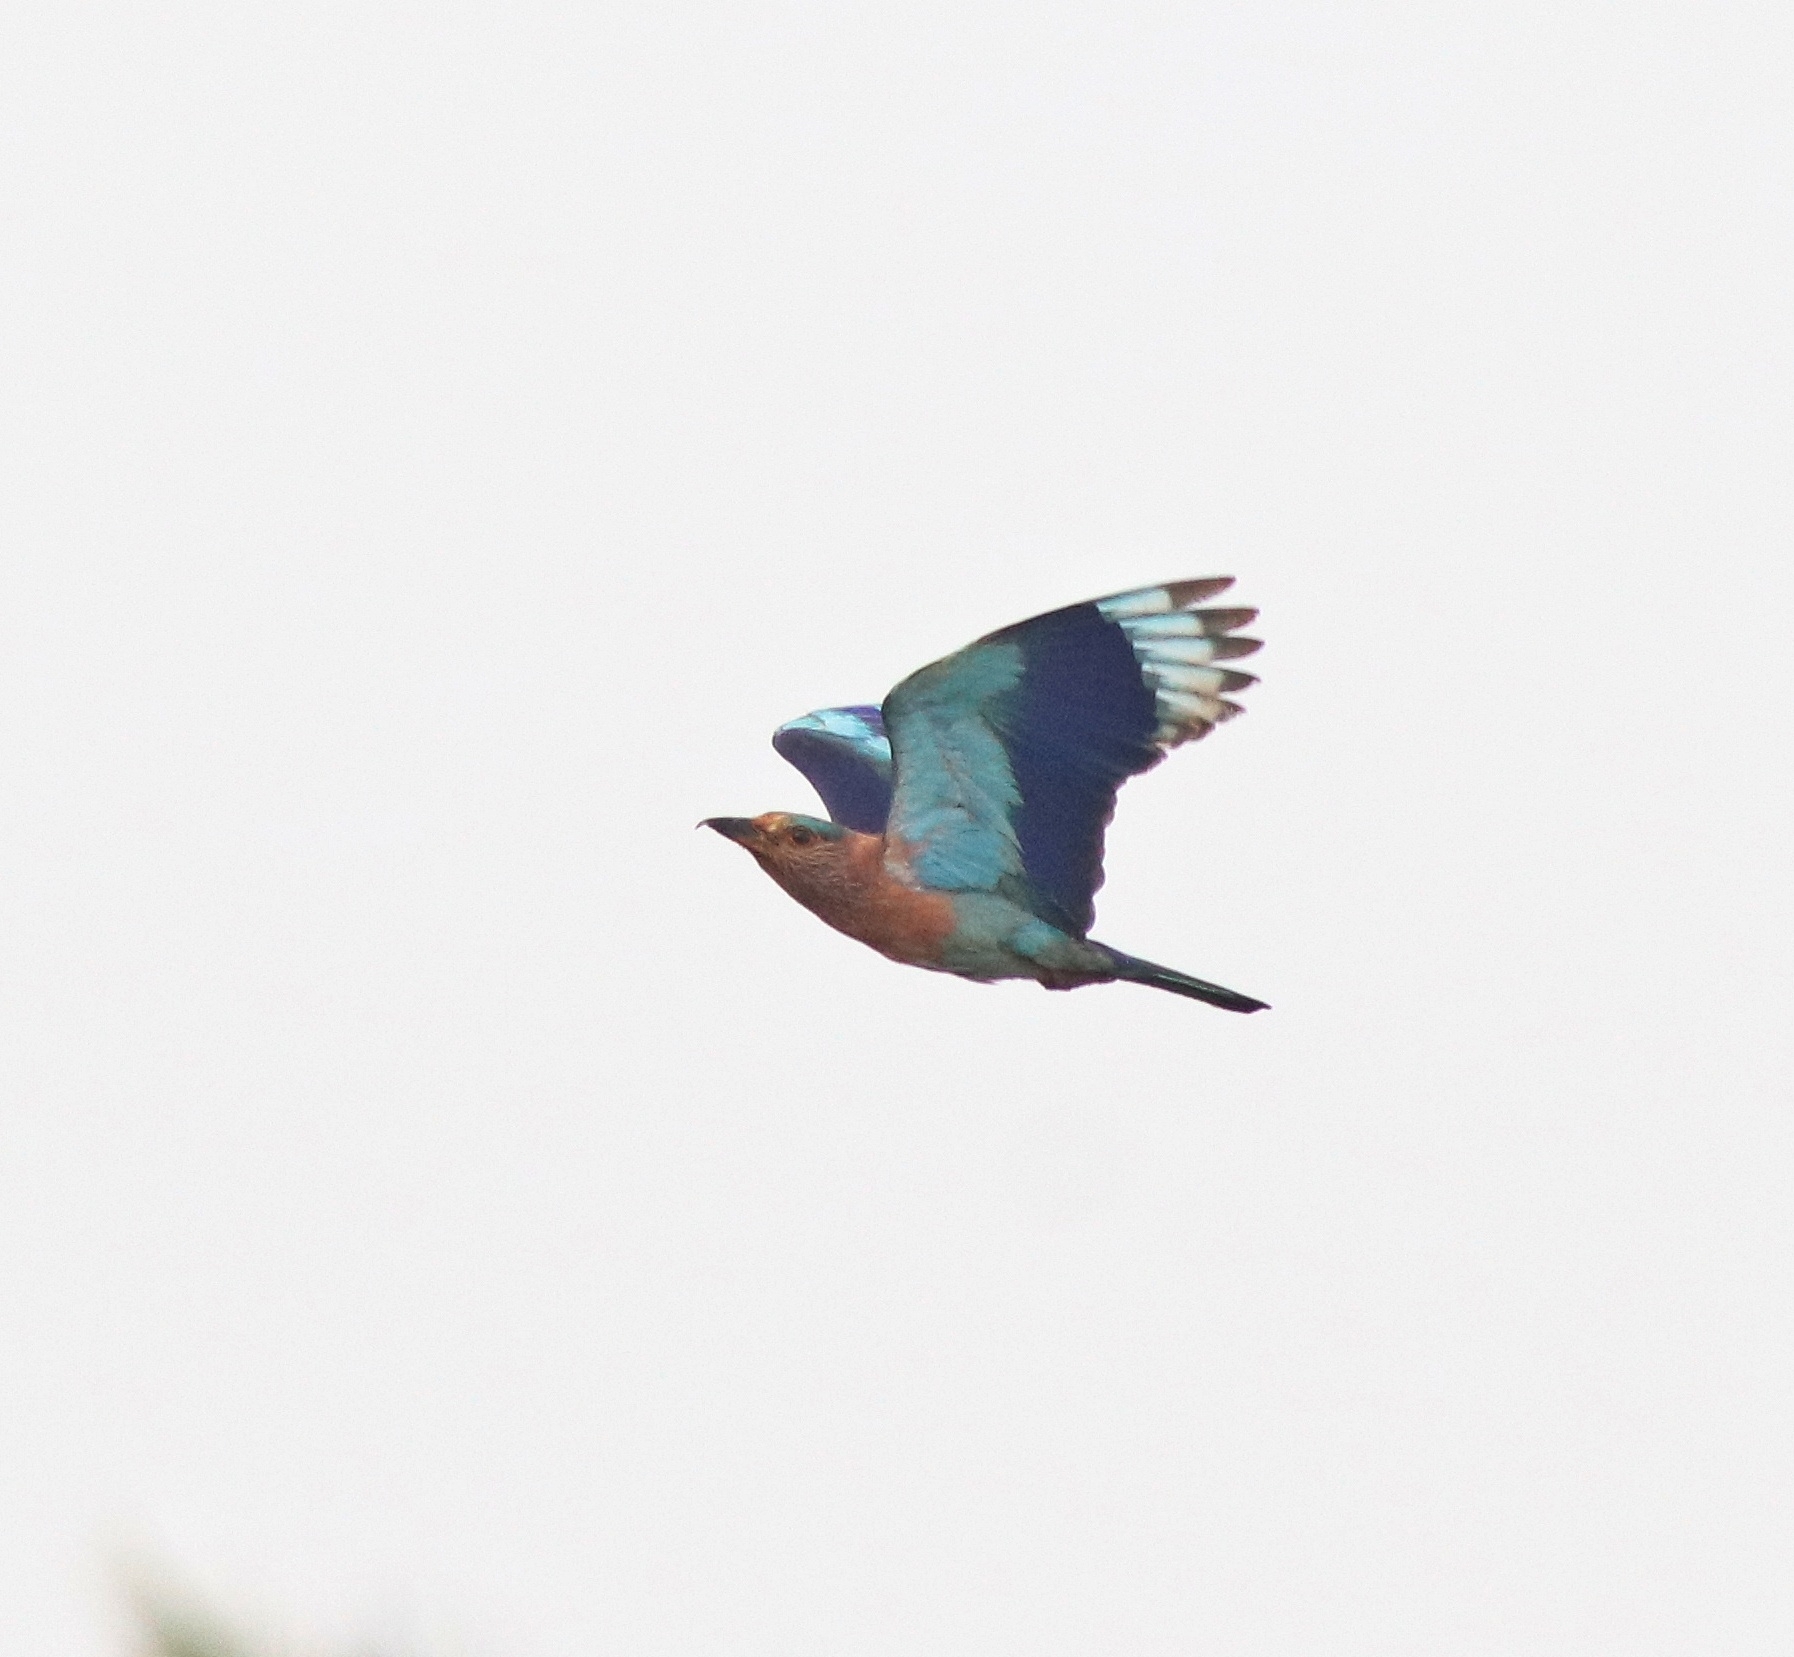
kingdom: Animalia
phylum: Chordata
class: Aves
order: Coraciiformes
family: Coraciidae
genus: Coracias
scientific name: Coracias benghalensis
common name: Indian roller
